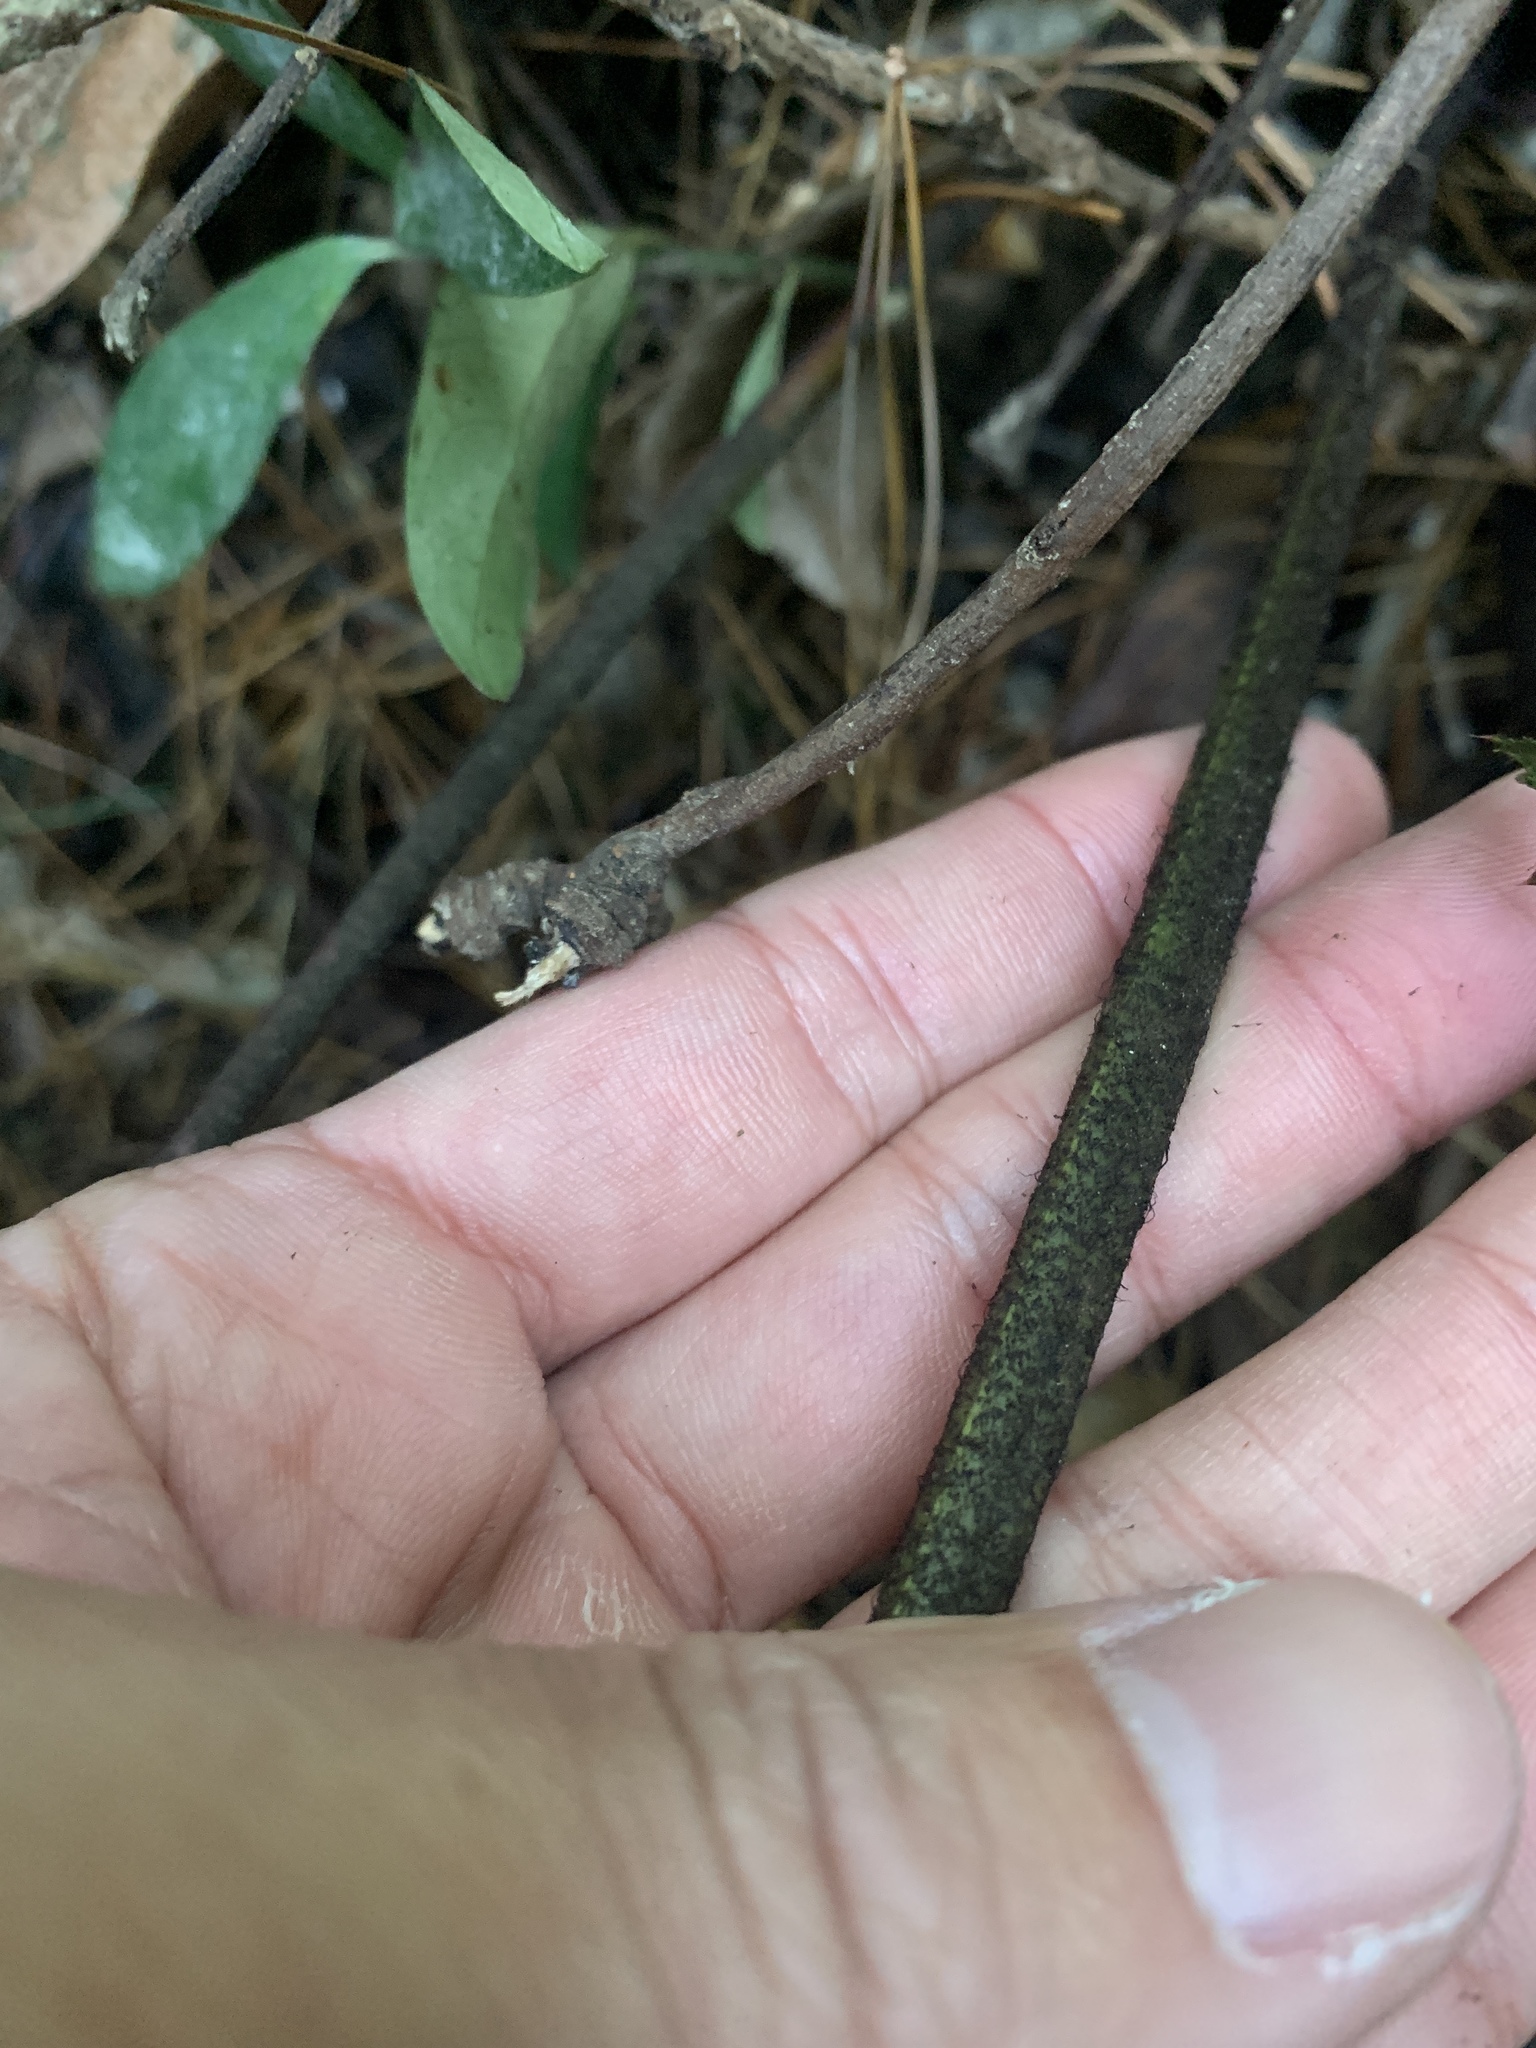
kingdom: Plantae
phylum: Tracheophyta
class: Polypodiopsida
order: Polypodiales
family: Dryopteridaceae
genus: Dryopteris
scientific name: Dryopteris sordidipes
